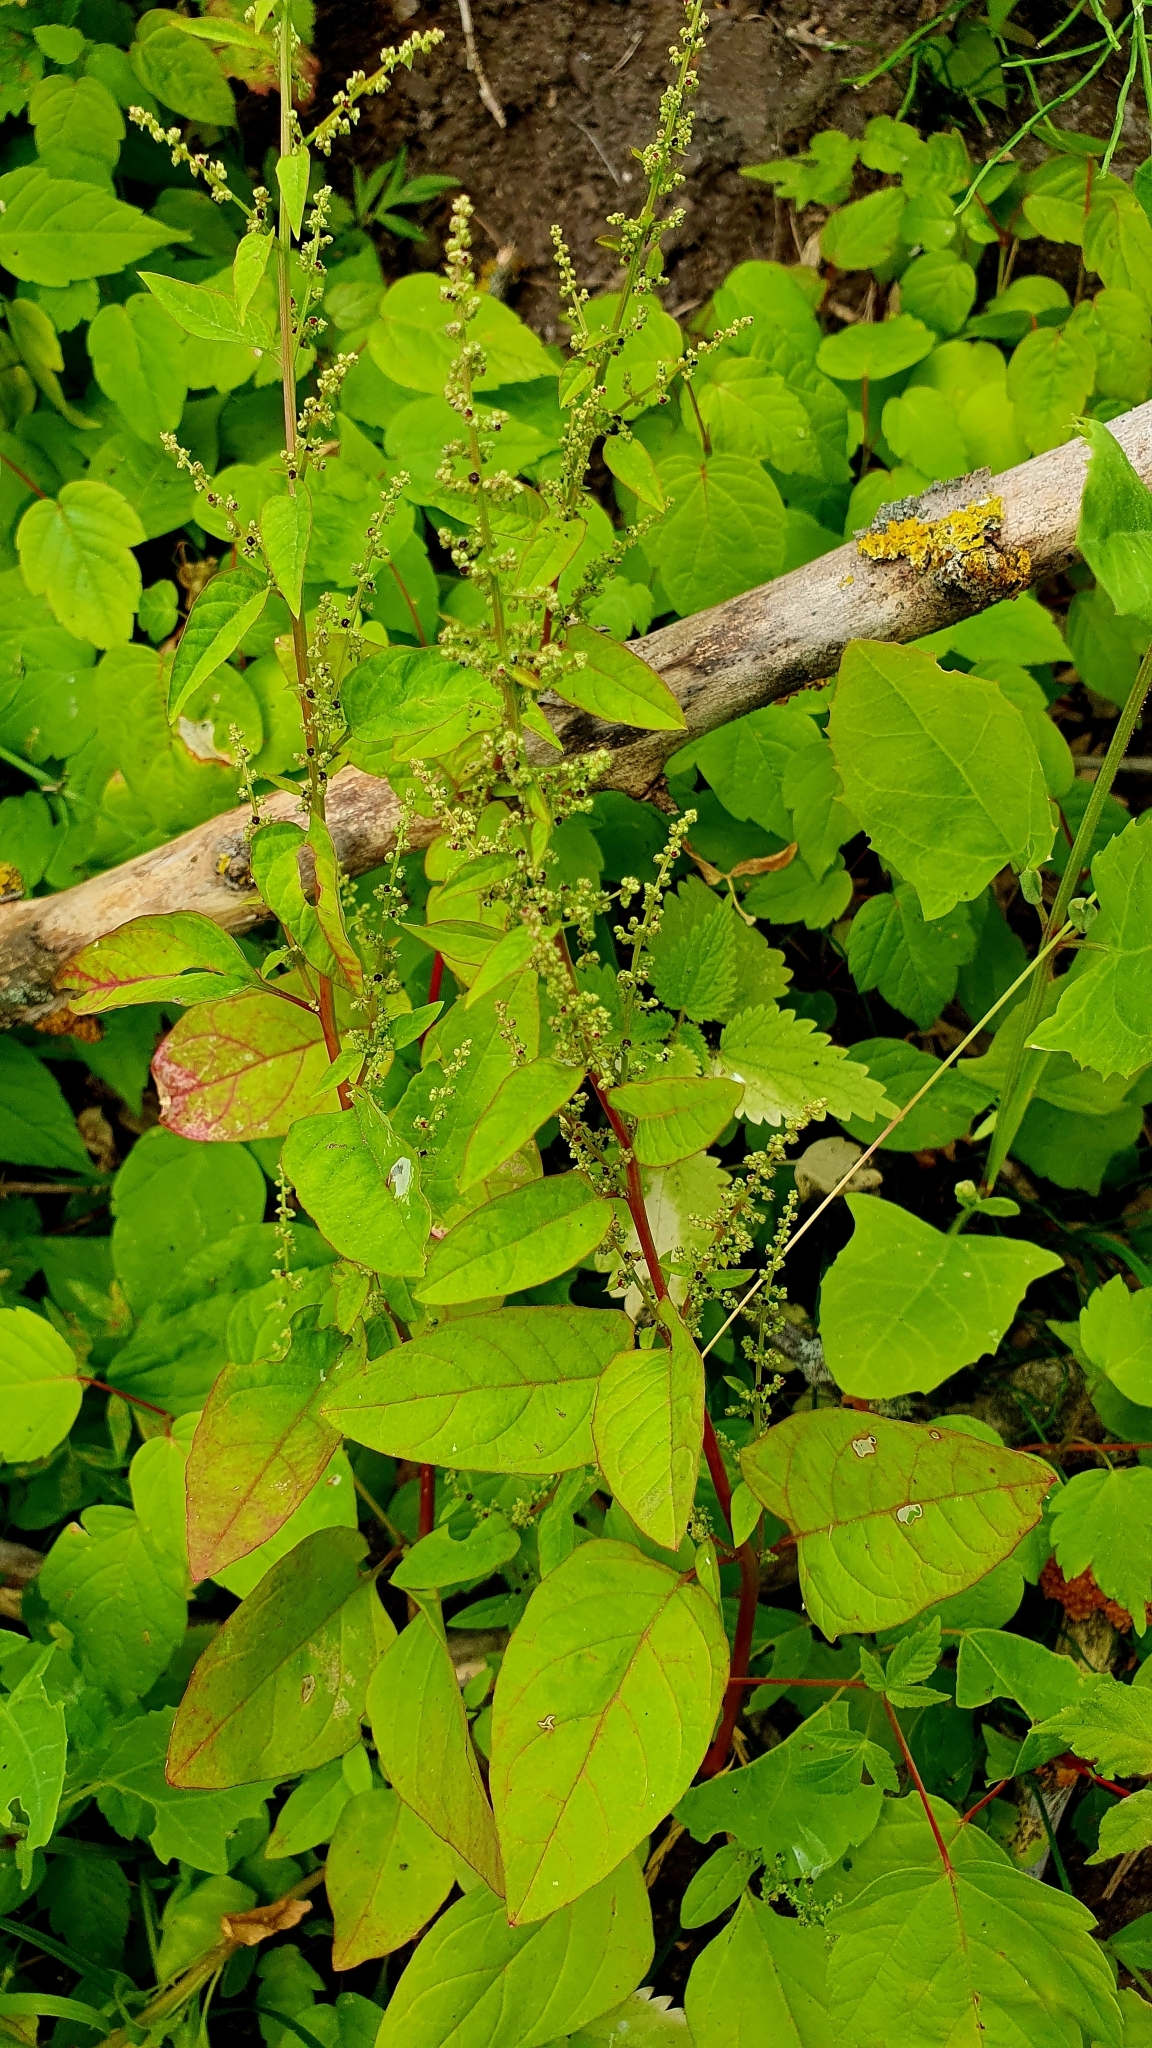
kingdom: Plantae
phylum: Tracheophyta
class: Magnoliopsida
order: Caryophyllales
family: Amaranthaceae
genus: Lipandra
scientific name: Lipandra polysperma
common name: Many-seed goosefoot
